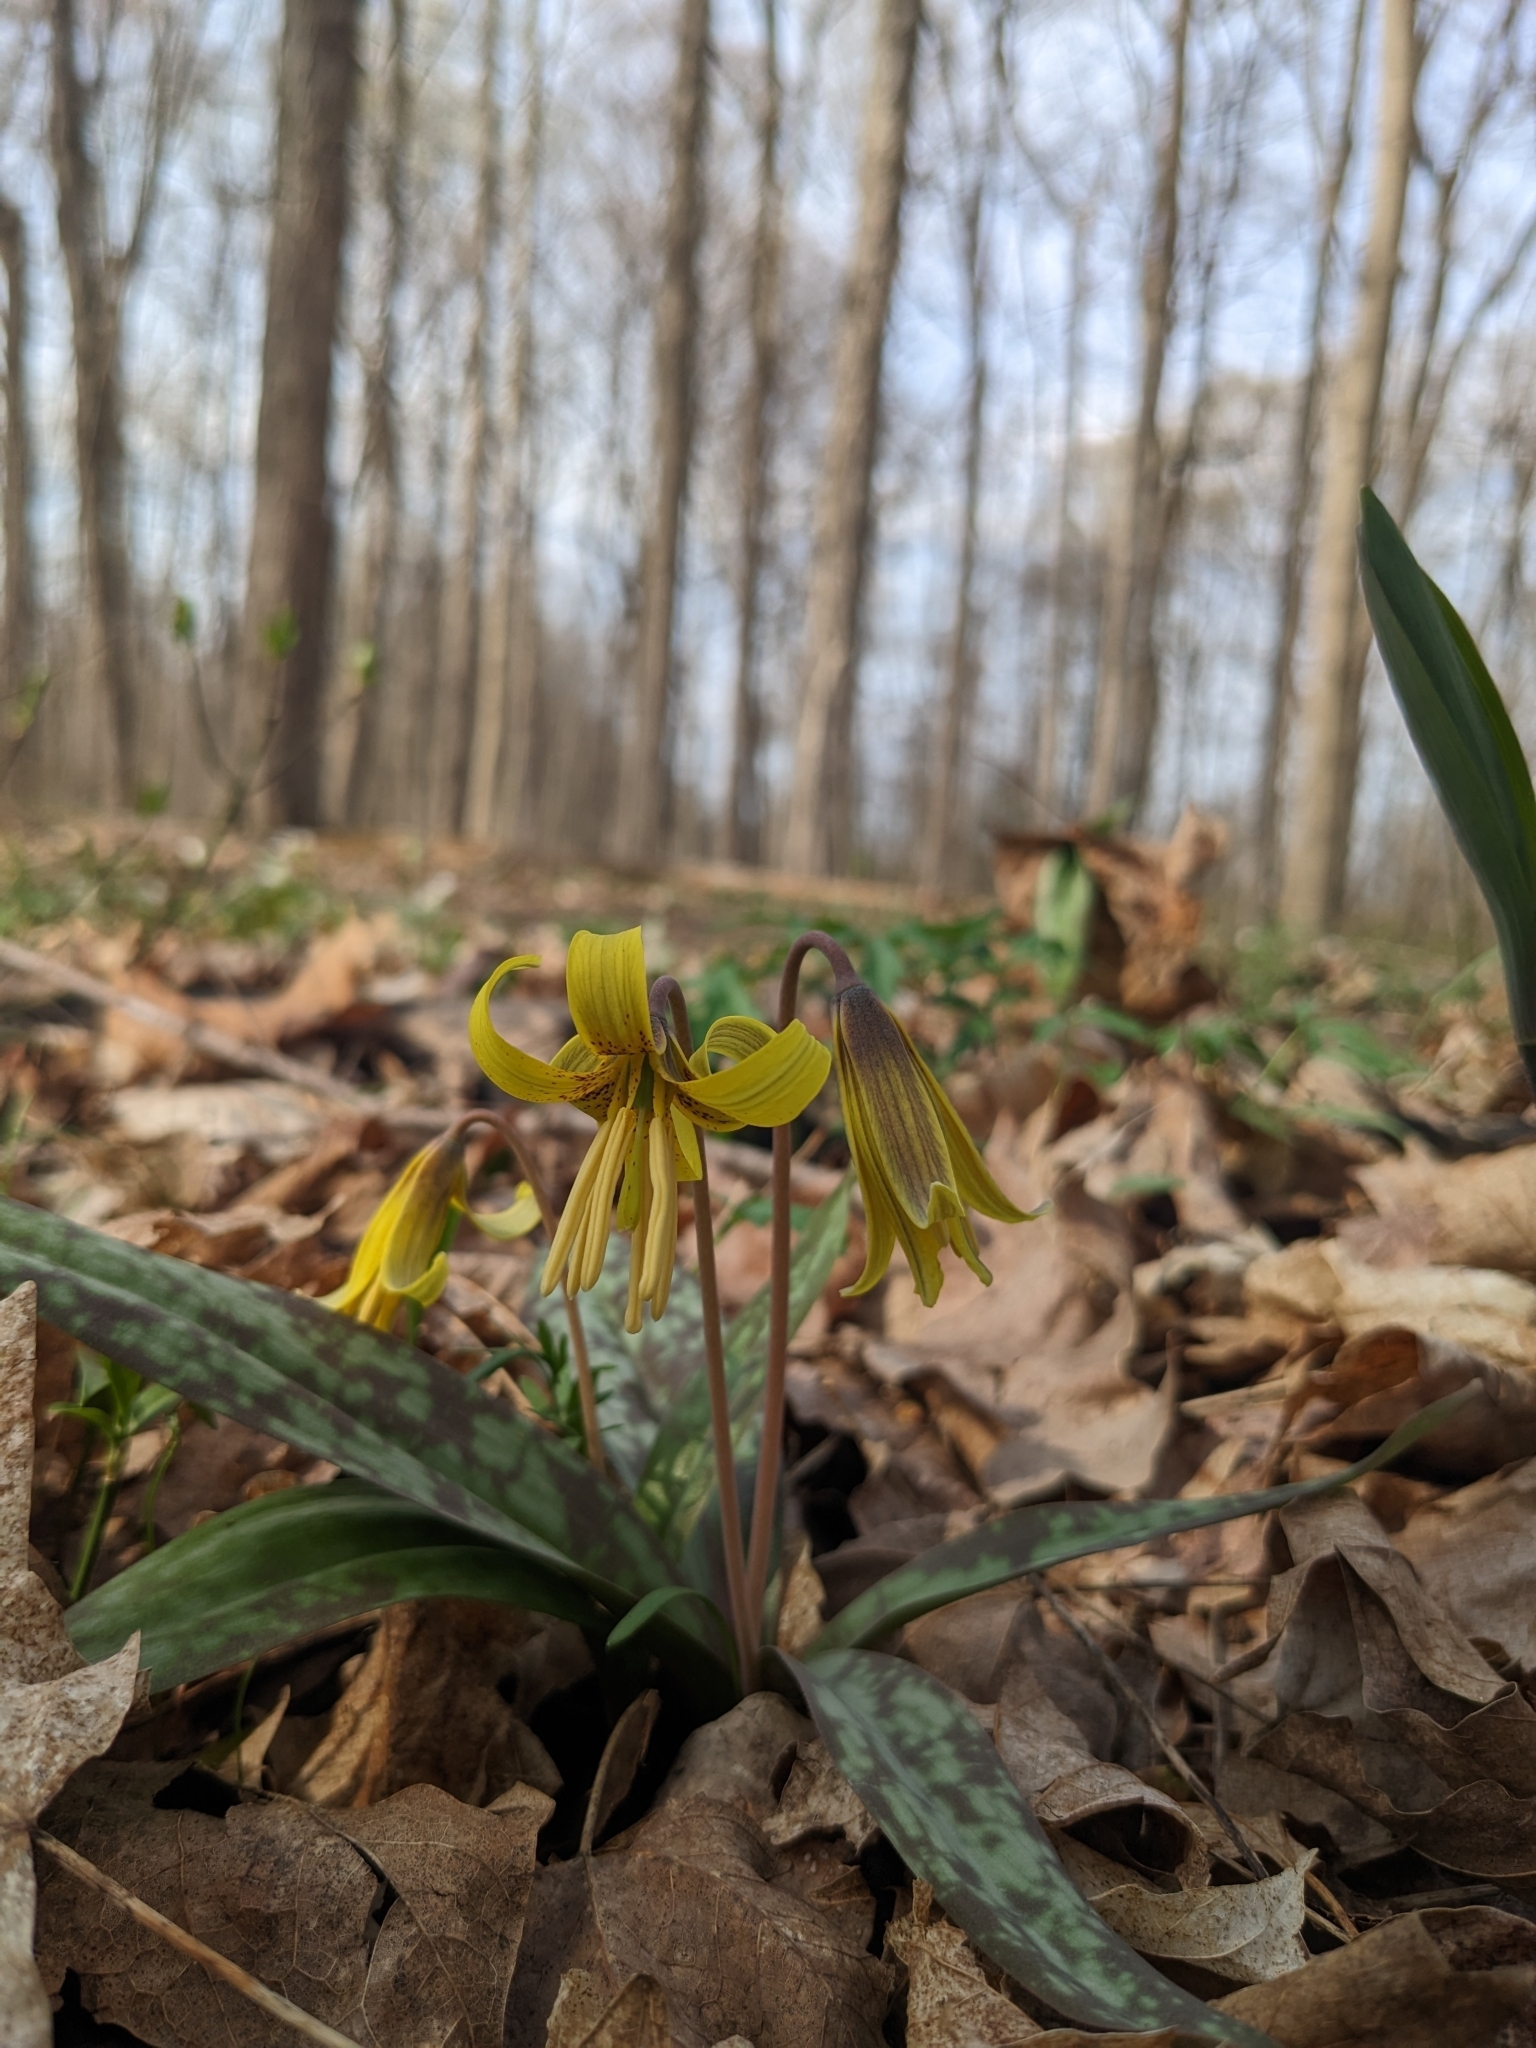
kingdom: Plantae
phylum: Tracheophyta
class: Liliopsida
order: Liliales
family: Liliaceae
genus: Erythronium
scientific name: Erythronium americanum
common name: Yellow adder's-tongue
